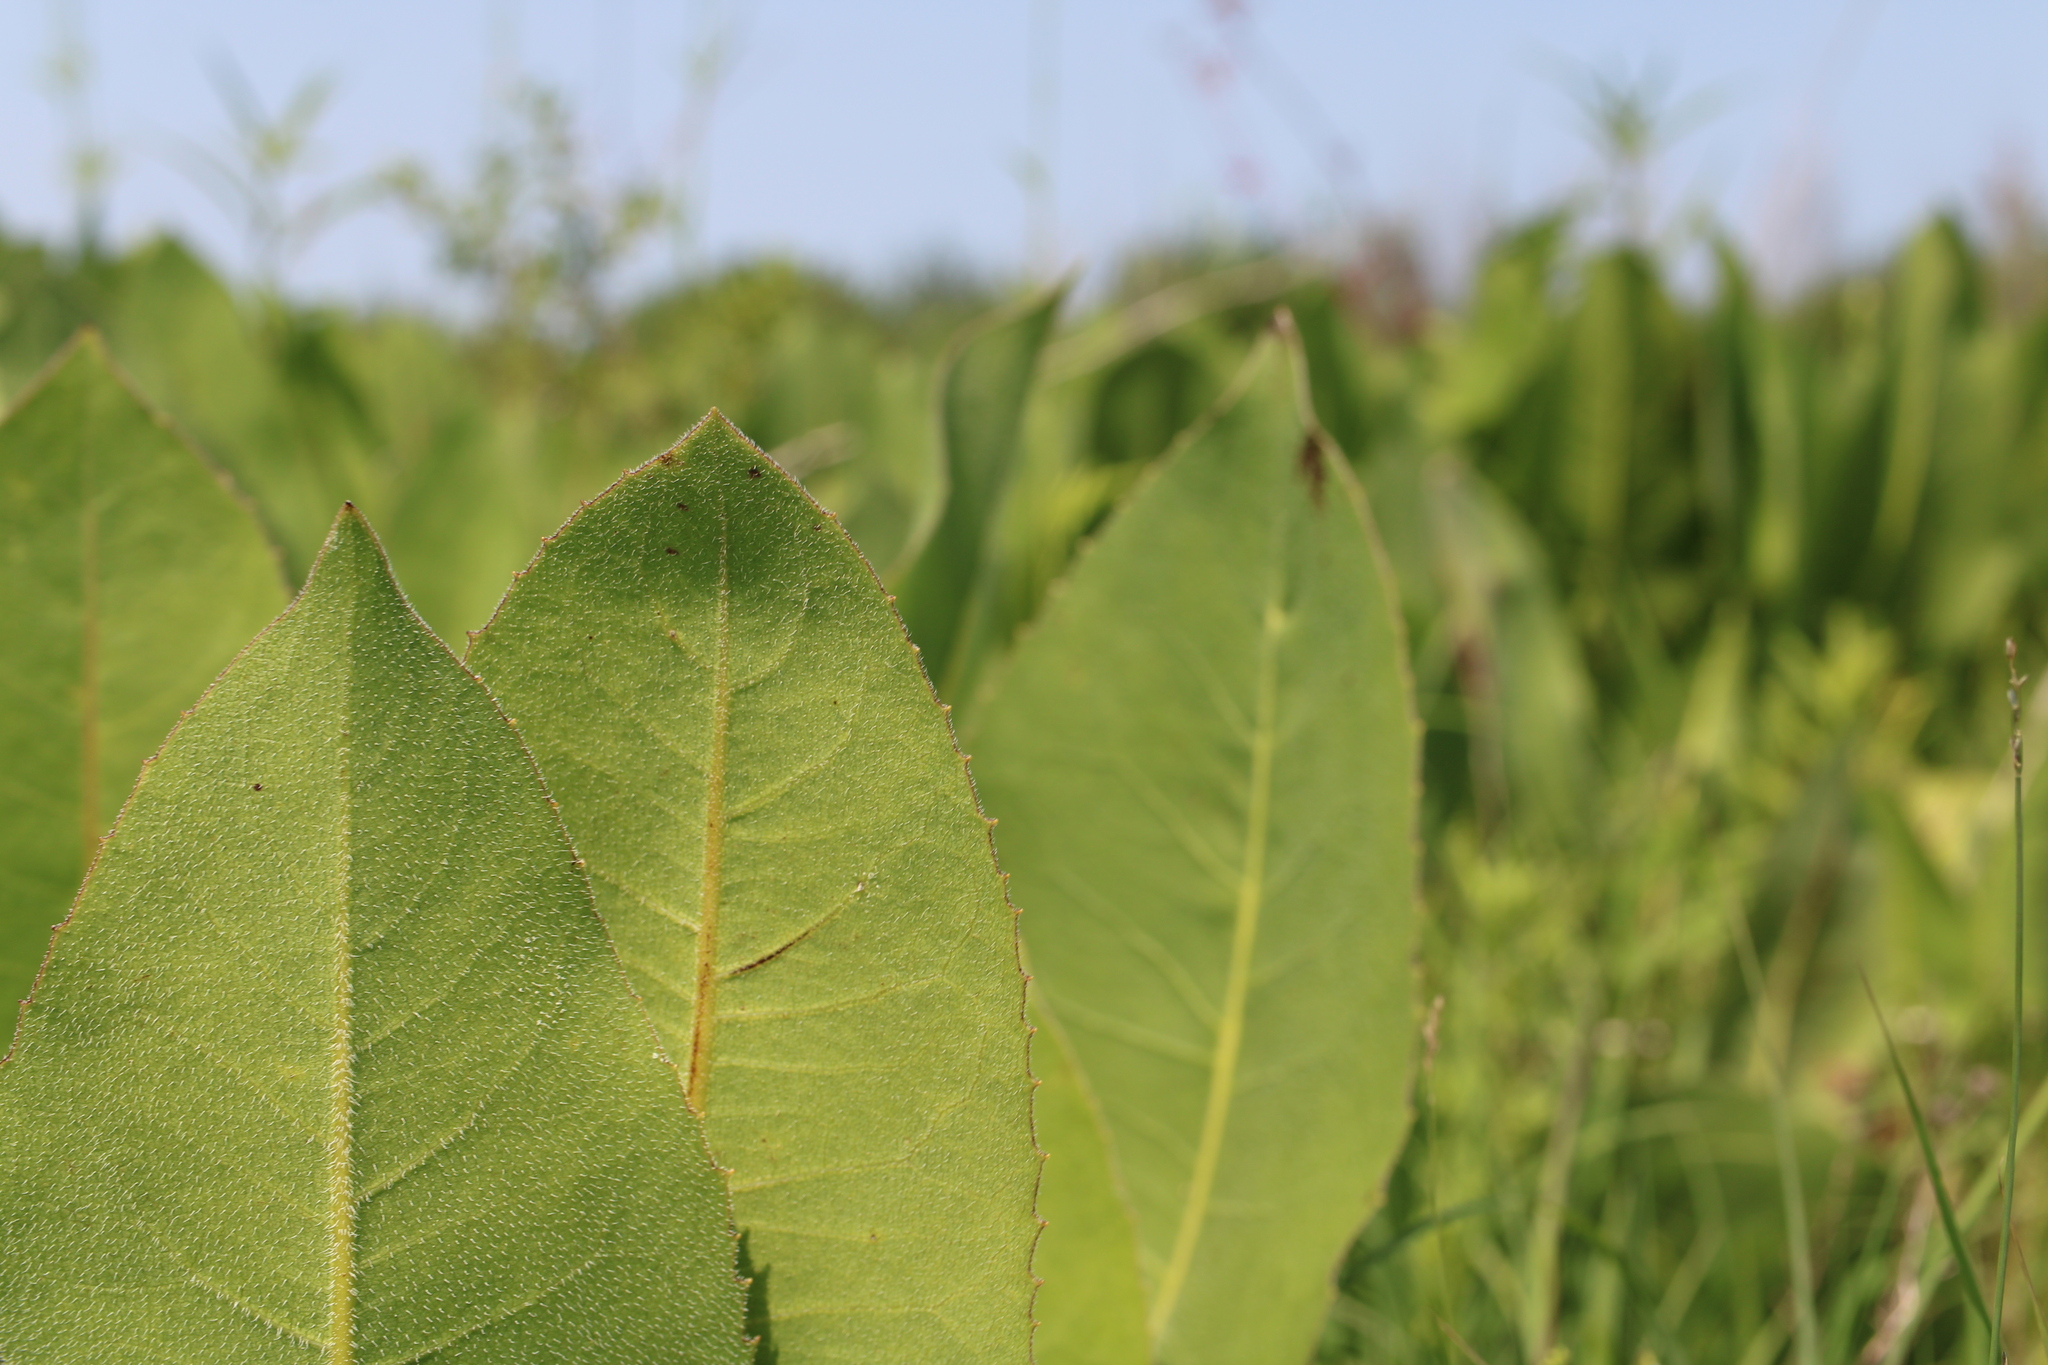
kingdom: Plantae
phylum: Tracheophyta
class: Magnoliopsida
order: Asterales
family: Asteraceae
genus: Silphium
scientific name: Silphium terebinthinaceum
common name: Basal-leaf rosinweed
